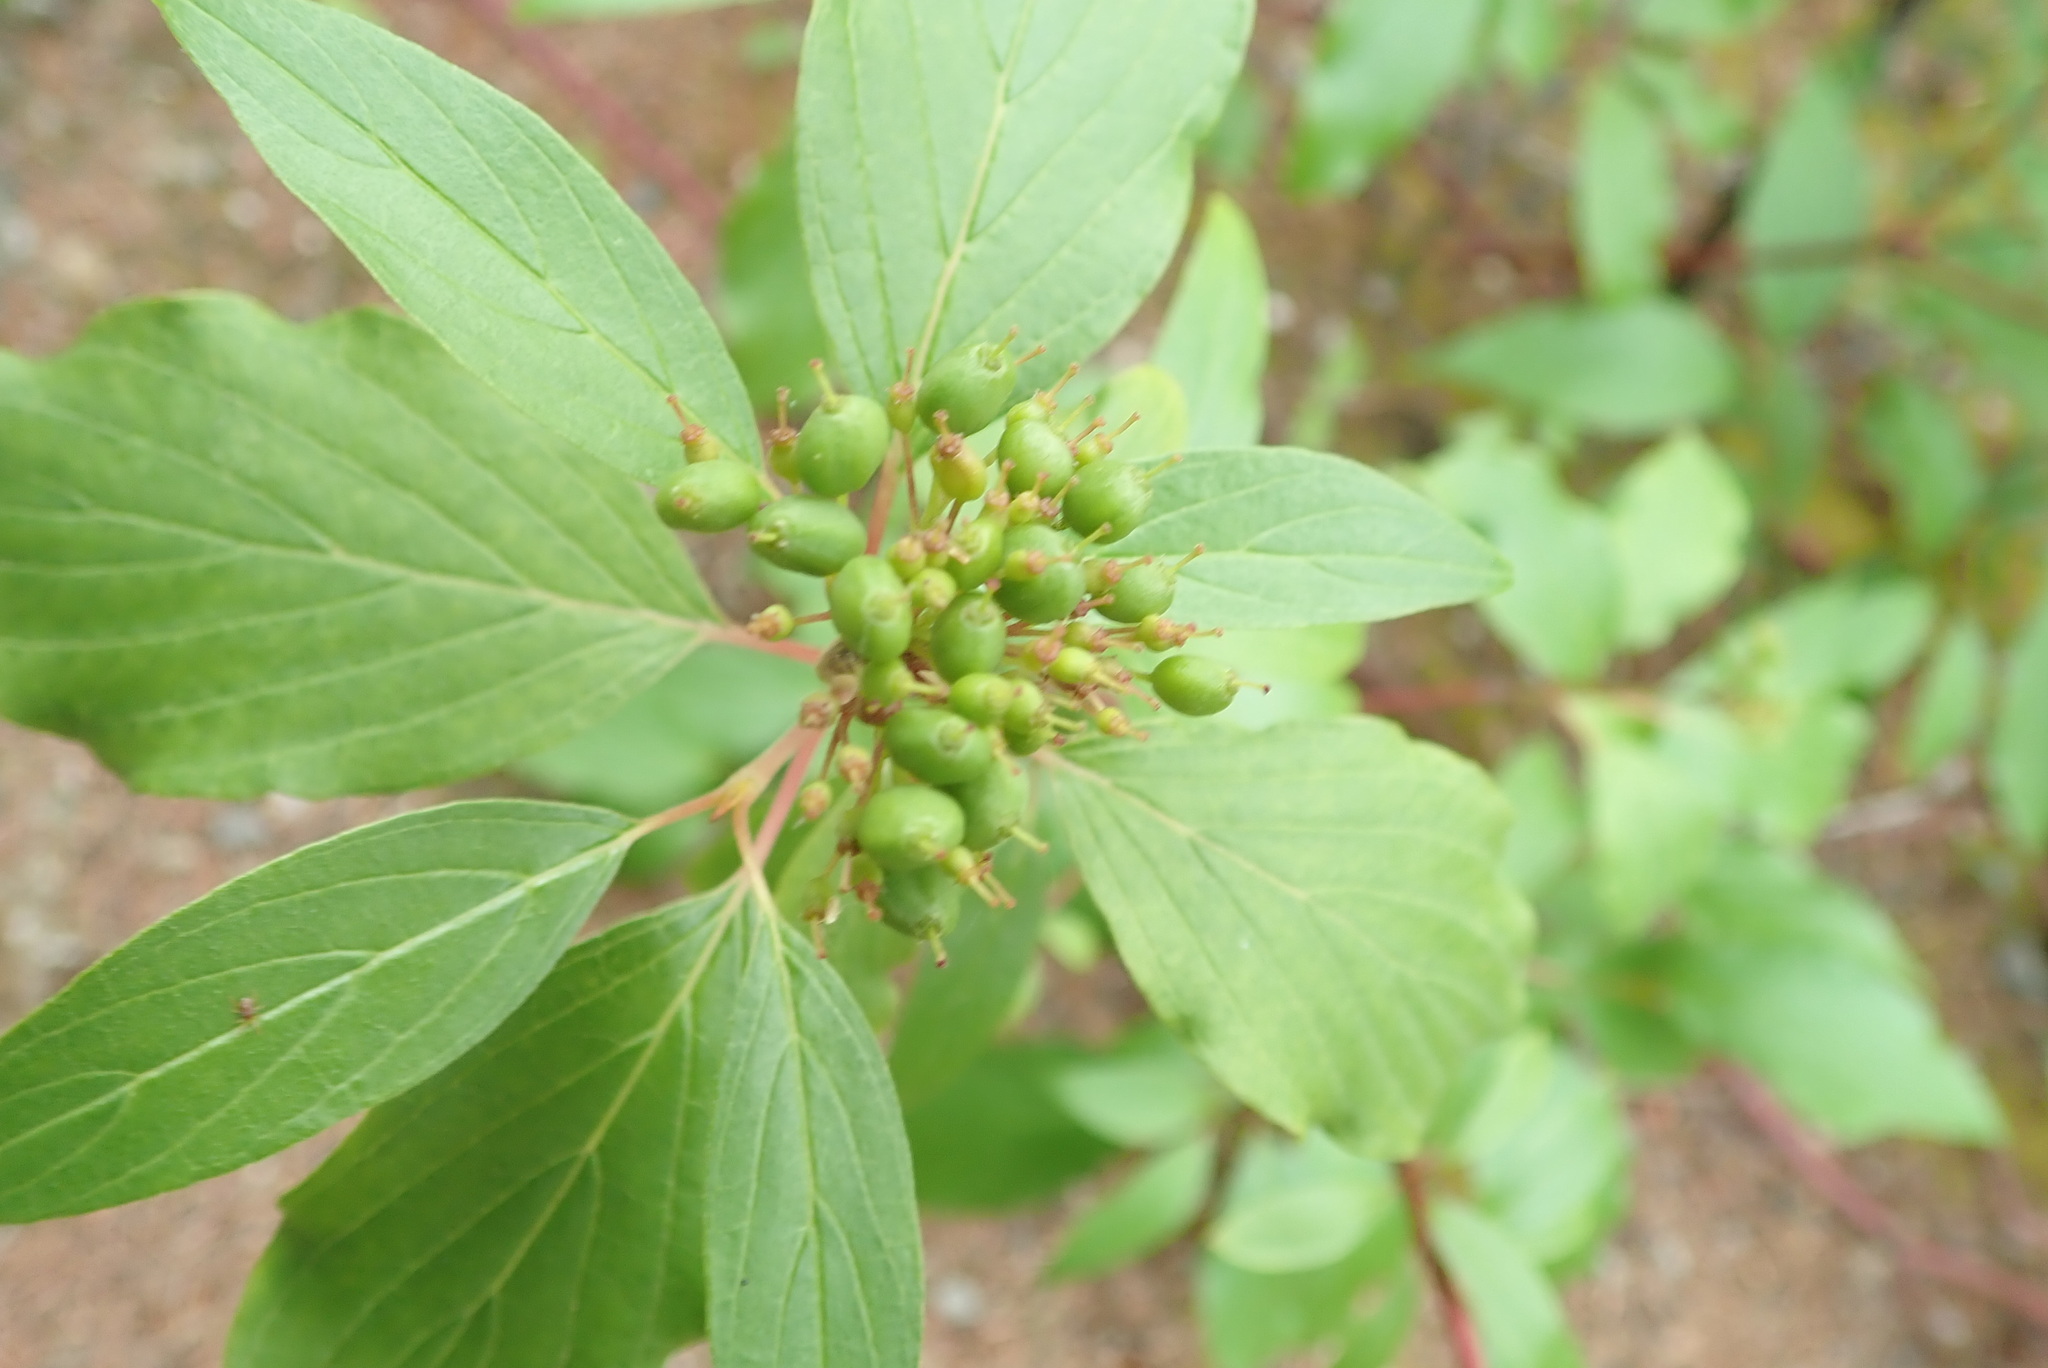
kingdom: Plantae
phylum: Tracheophyta
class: Magnoliopsida
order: Cornales
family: Cornaceae
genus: Cornus
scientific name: Cornus sericea
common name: Red-osier dogwood
